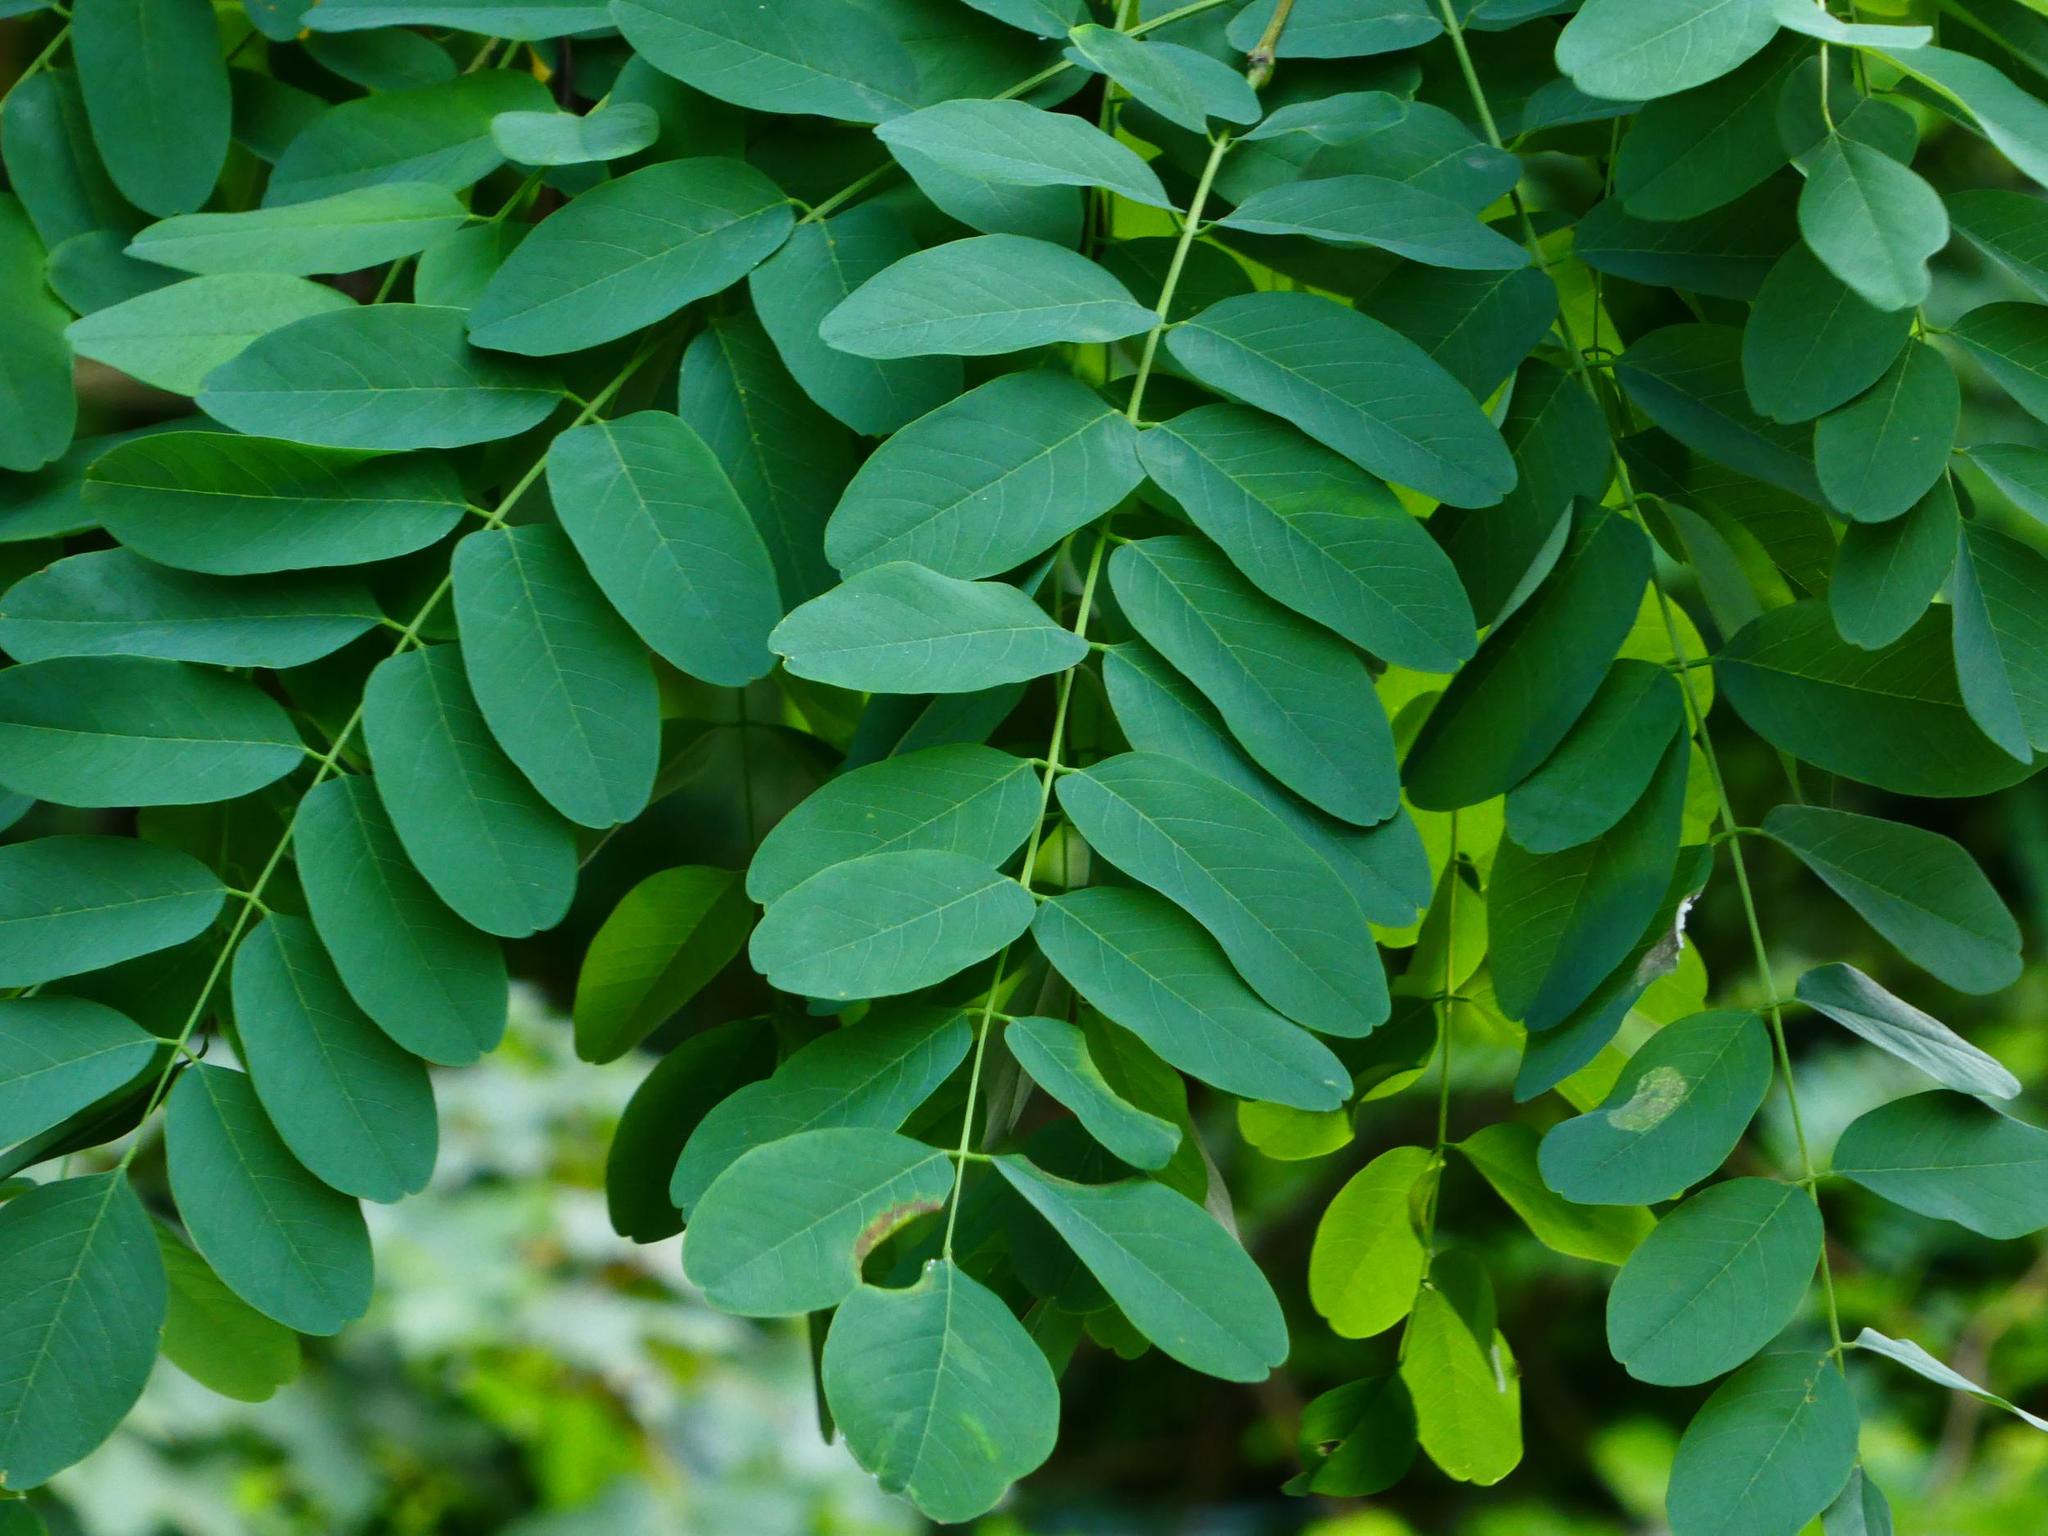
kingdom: Plantae
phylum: Tracheophyta
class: Magnoliopsida
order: Fabales
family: Fabaceae
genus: Robinia
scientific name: Robinia pseudoacacia
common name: Black locust
